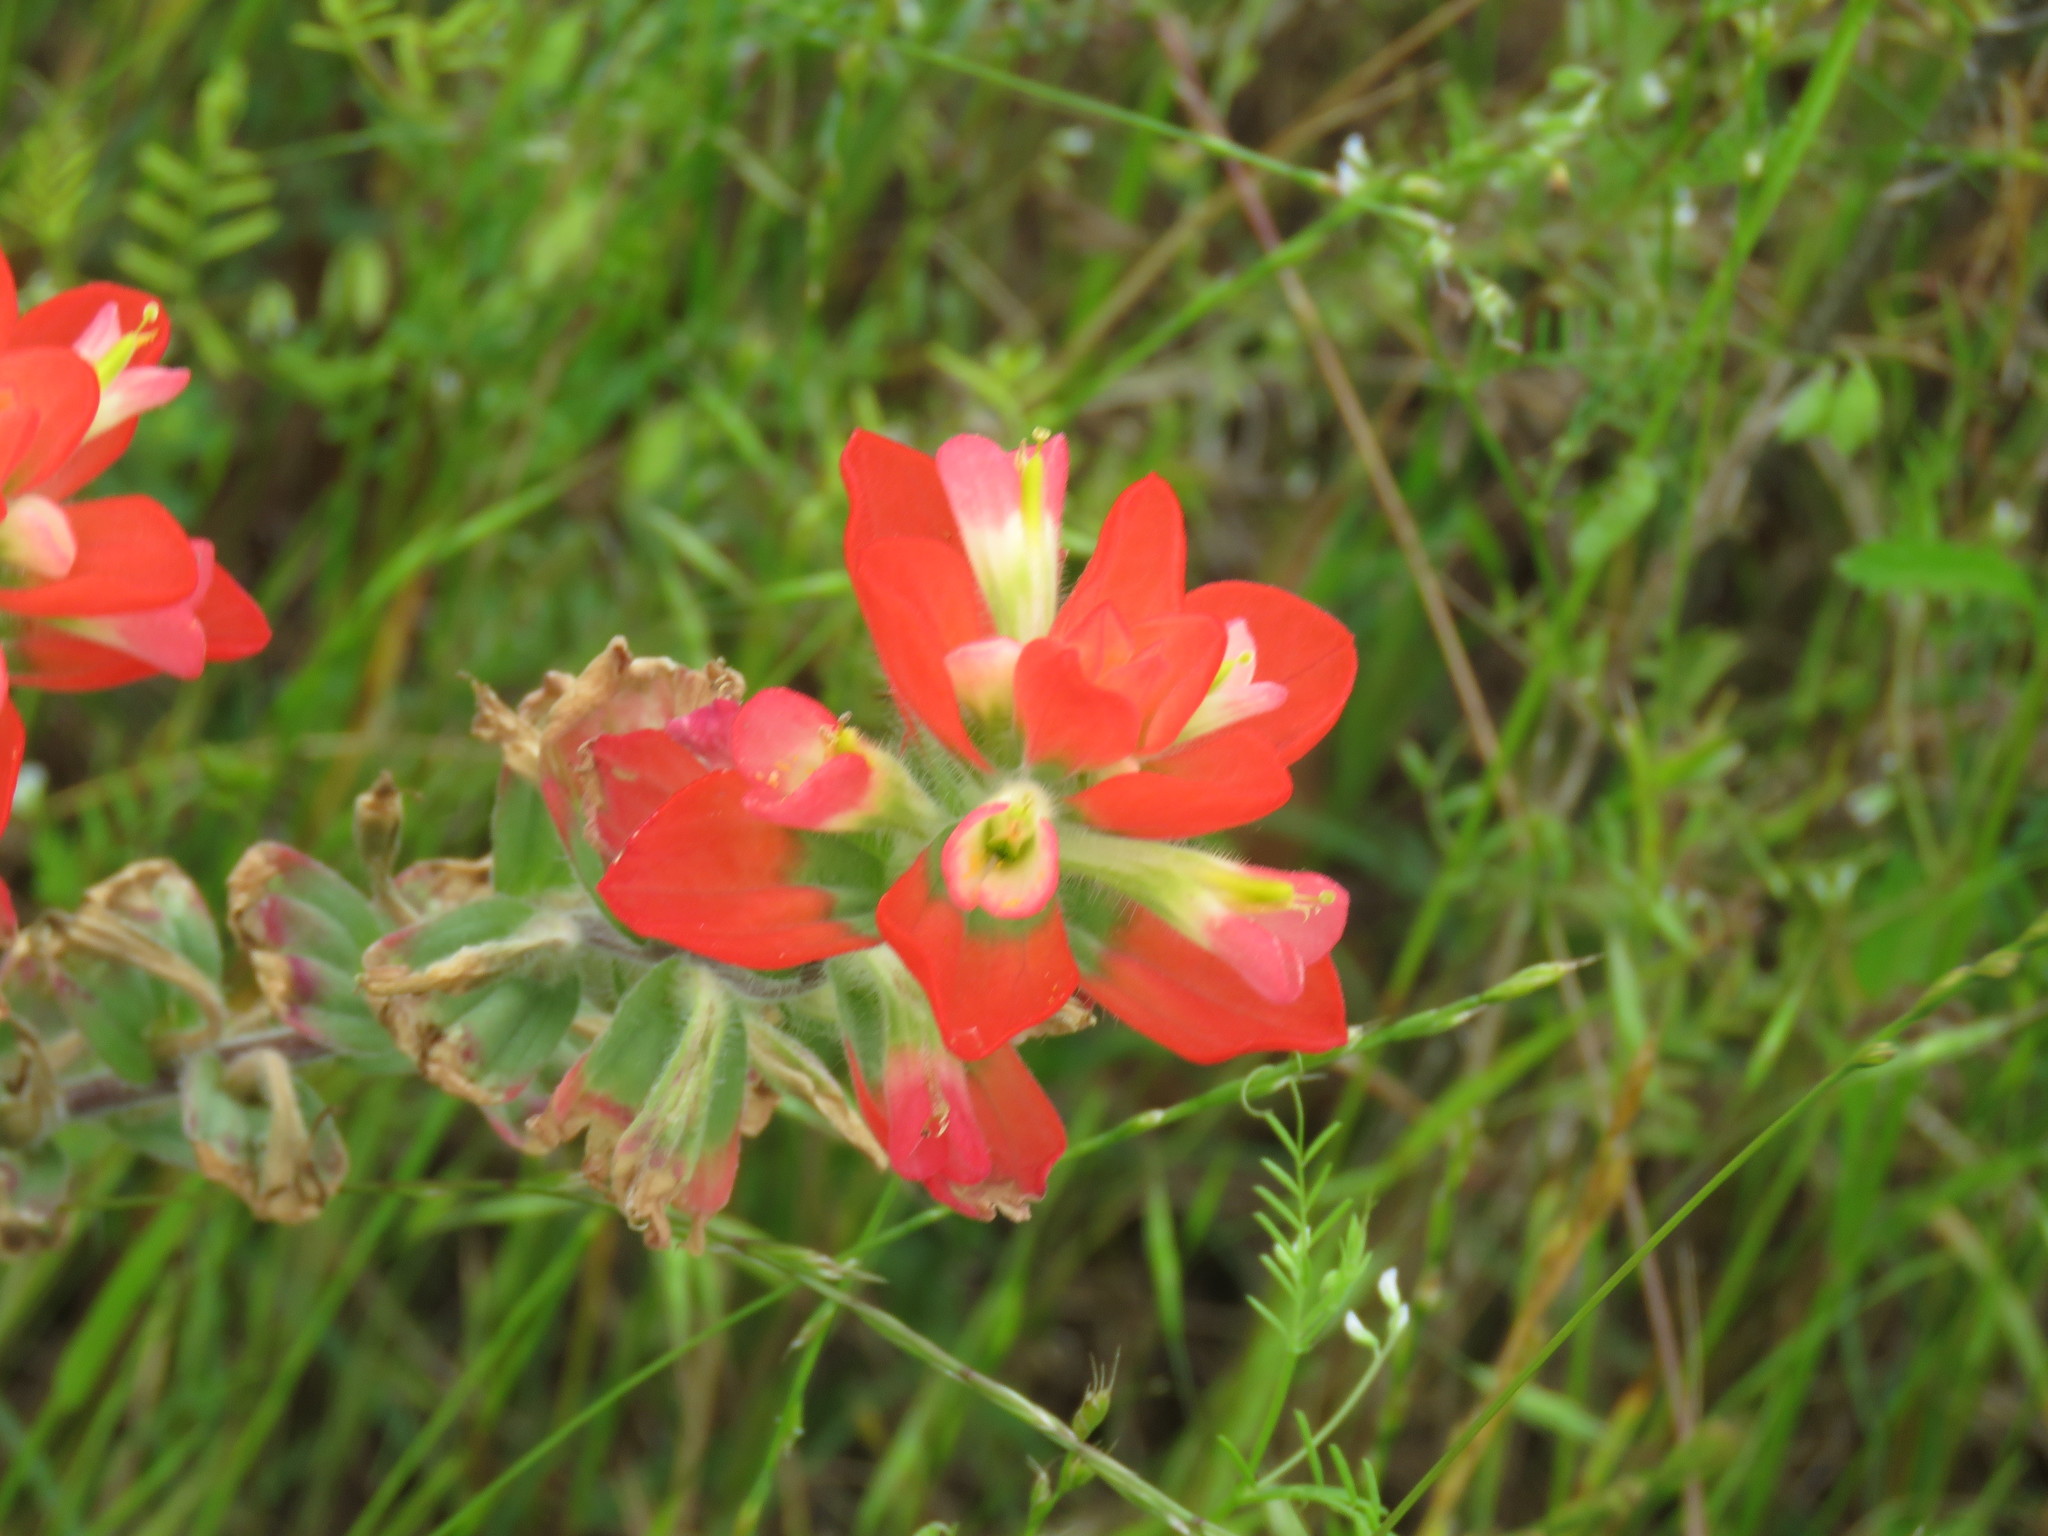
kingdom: Plantae
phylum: Tracheophyta
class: Magnoliopsida
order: Lamiales
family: Orobanchaceae
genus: Castilleja
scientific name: Castilleja indivisa
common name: Texas paintbrush
